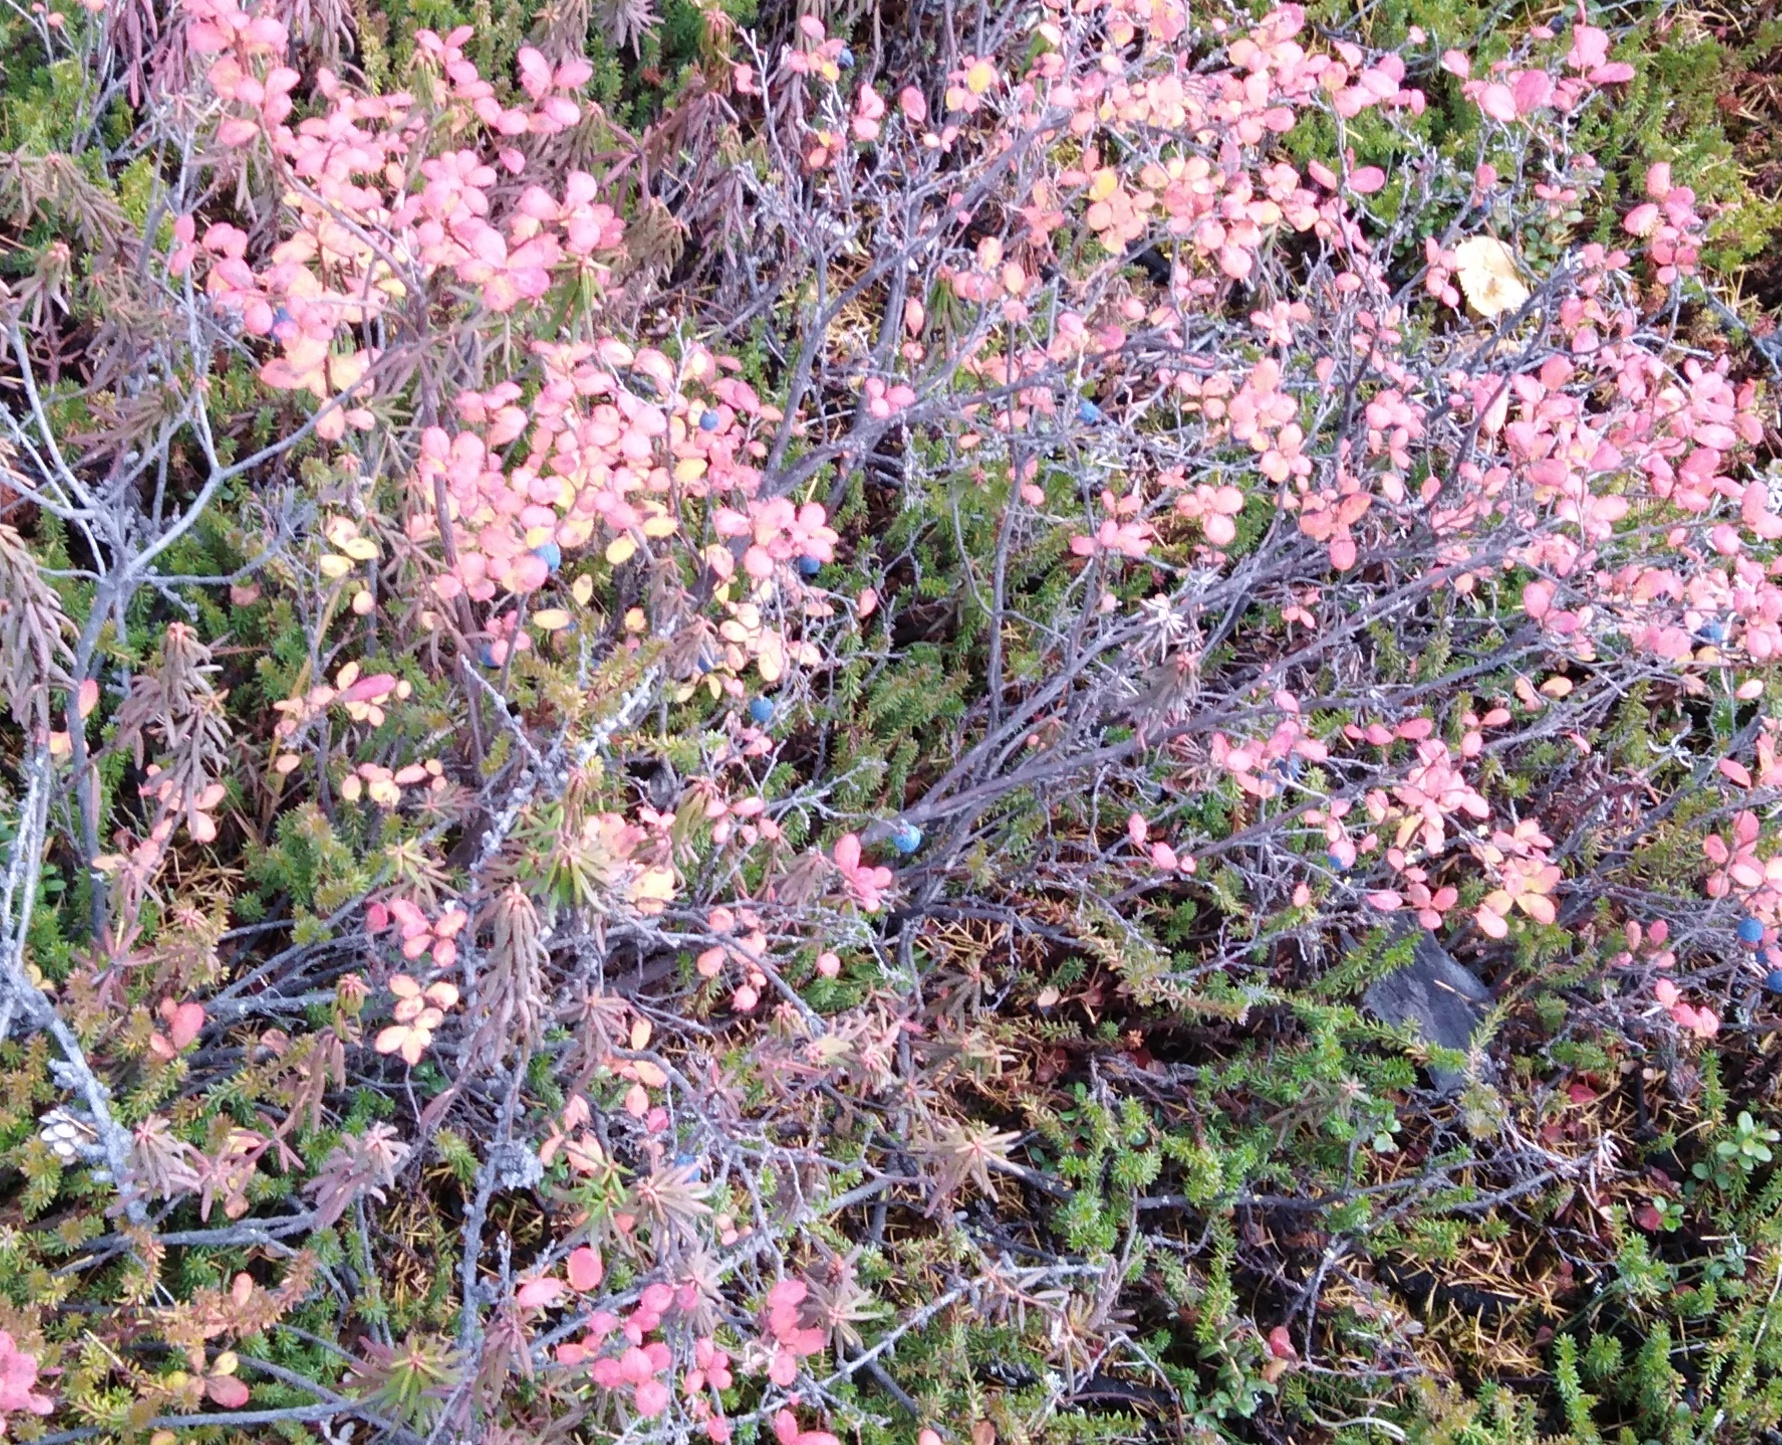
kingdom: Plantae
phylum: Tracheophyta
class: Magnoliopsida
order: Ericales
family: Ericaceae
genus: Vaccinium
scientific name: Vaccinium uliginosum
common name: Bog bilberry
